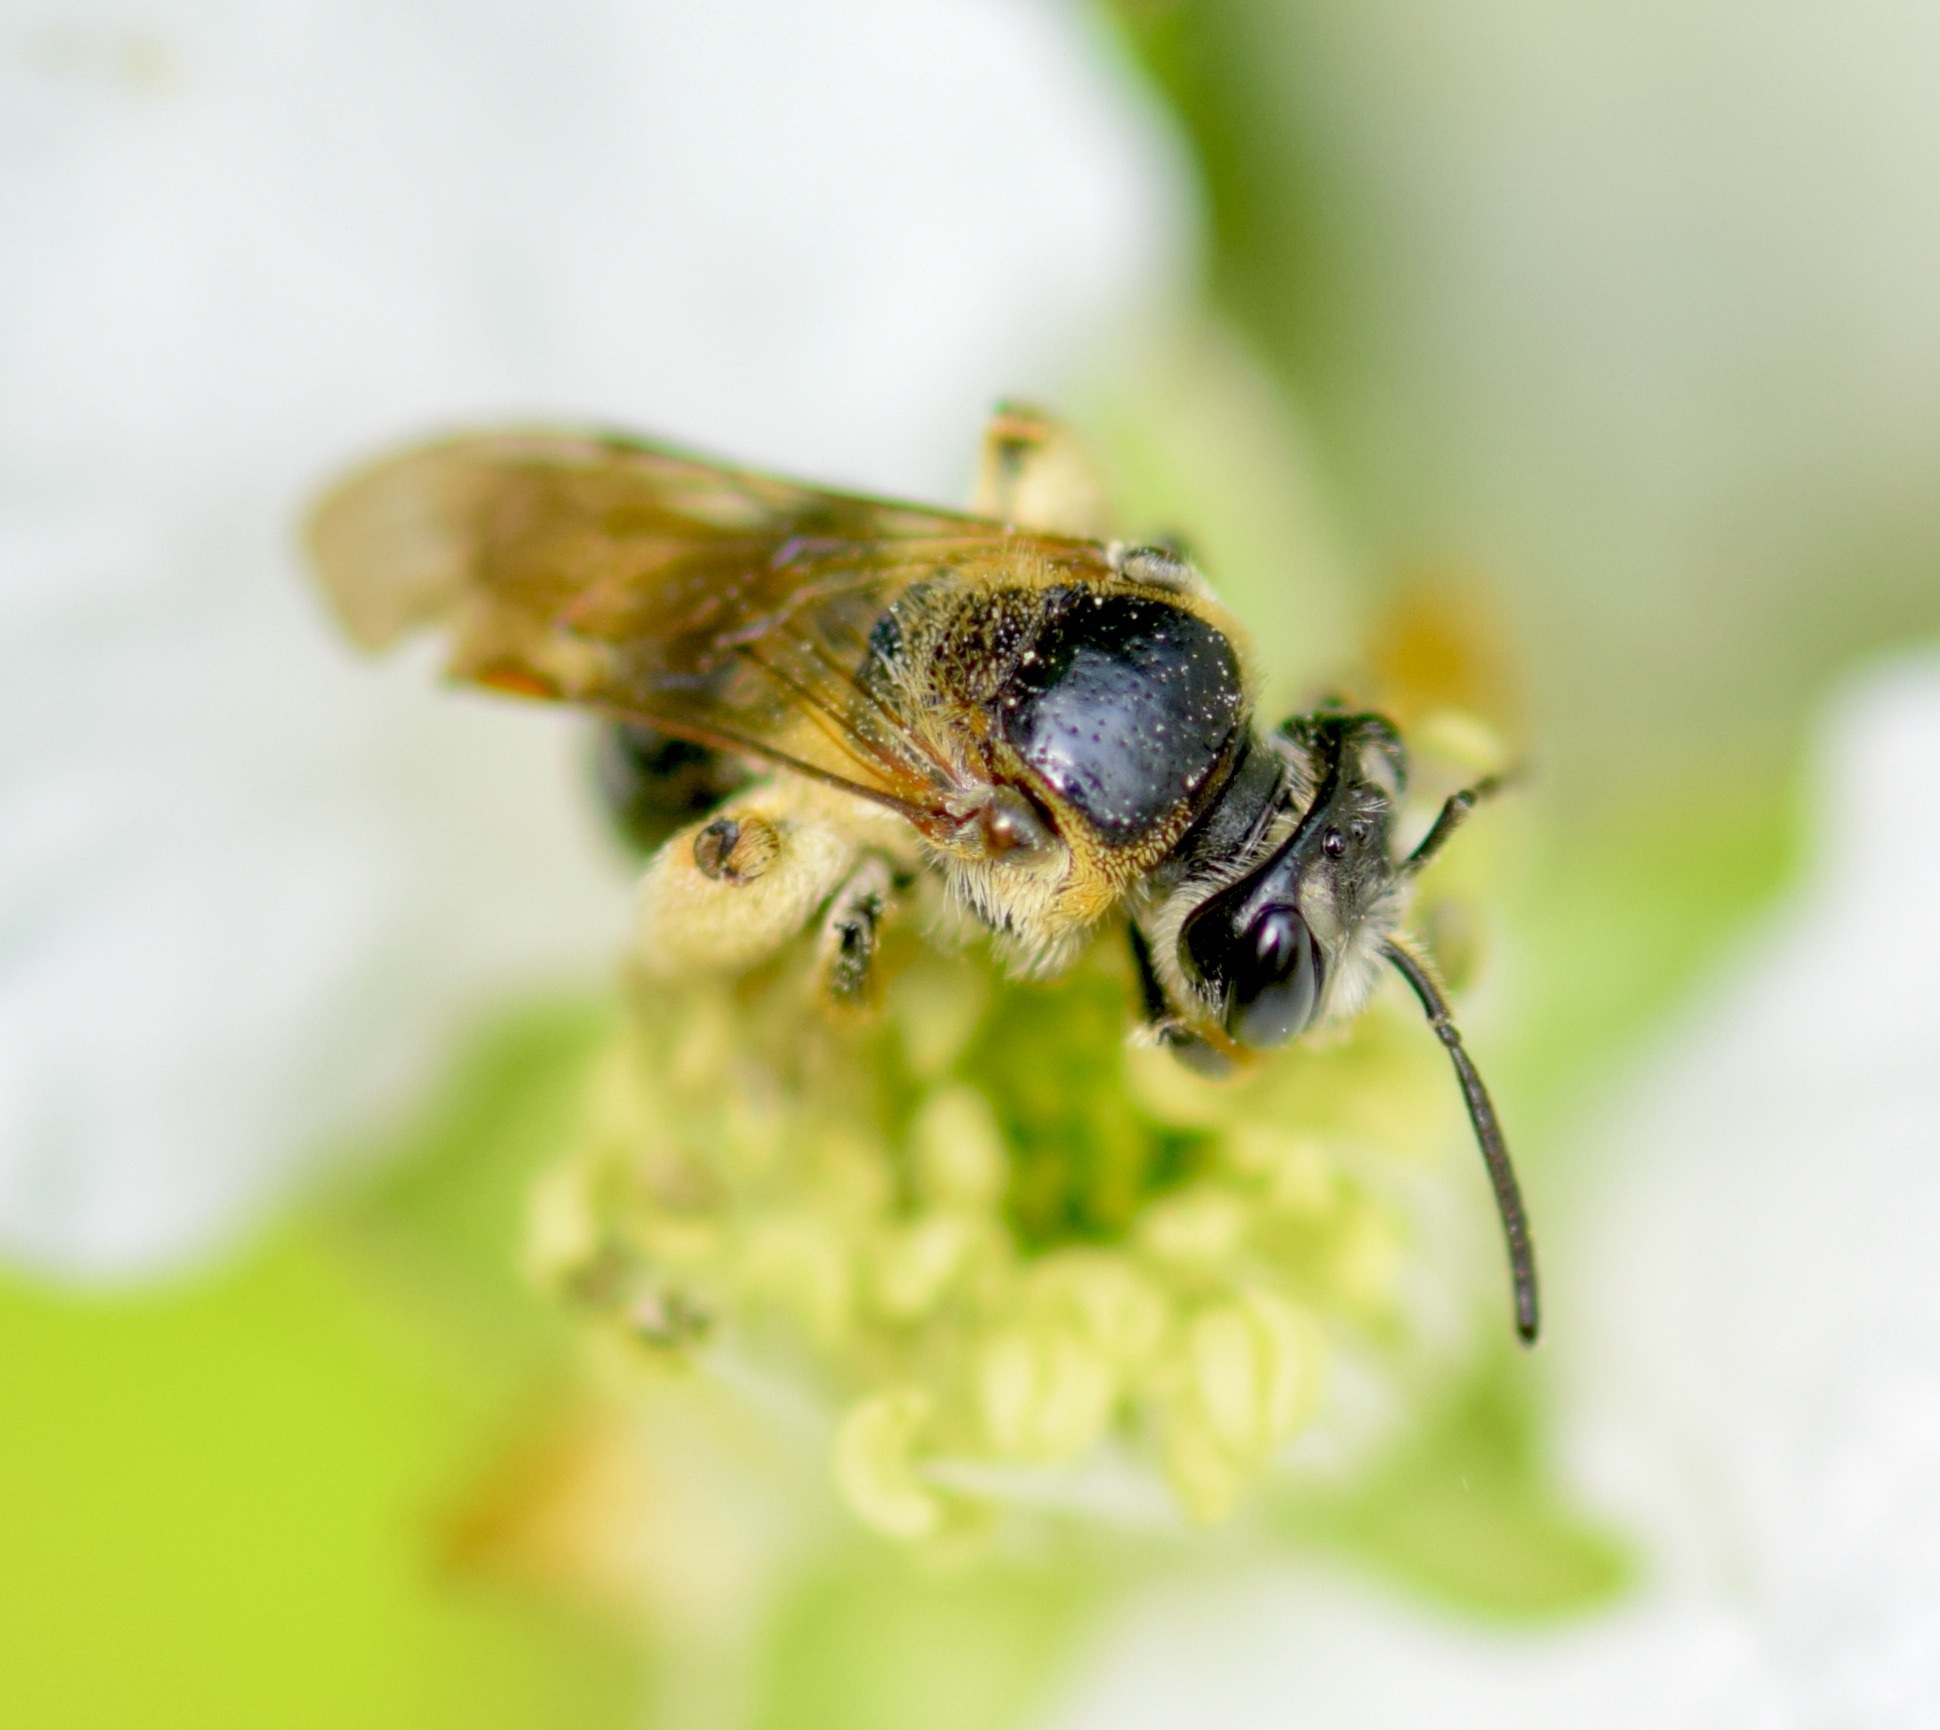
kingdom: Animalia
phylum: Arthropoda
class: Insecta
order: Hymenoptera
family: Andrenidae
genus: Andrena
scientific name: Andrena nuda
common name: Nude mining bee
